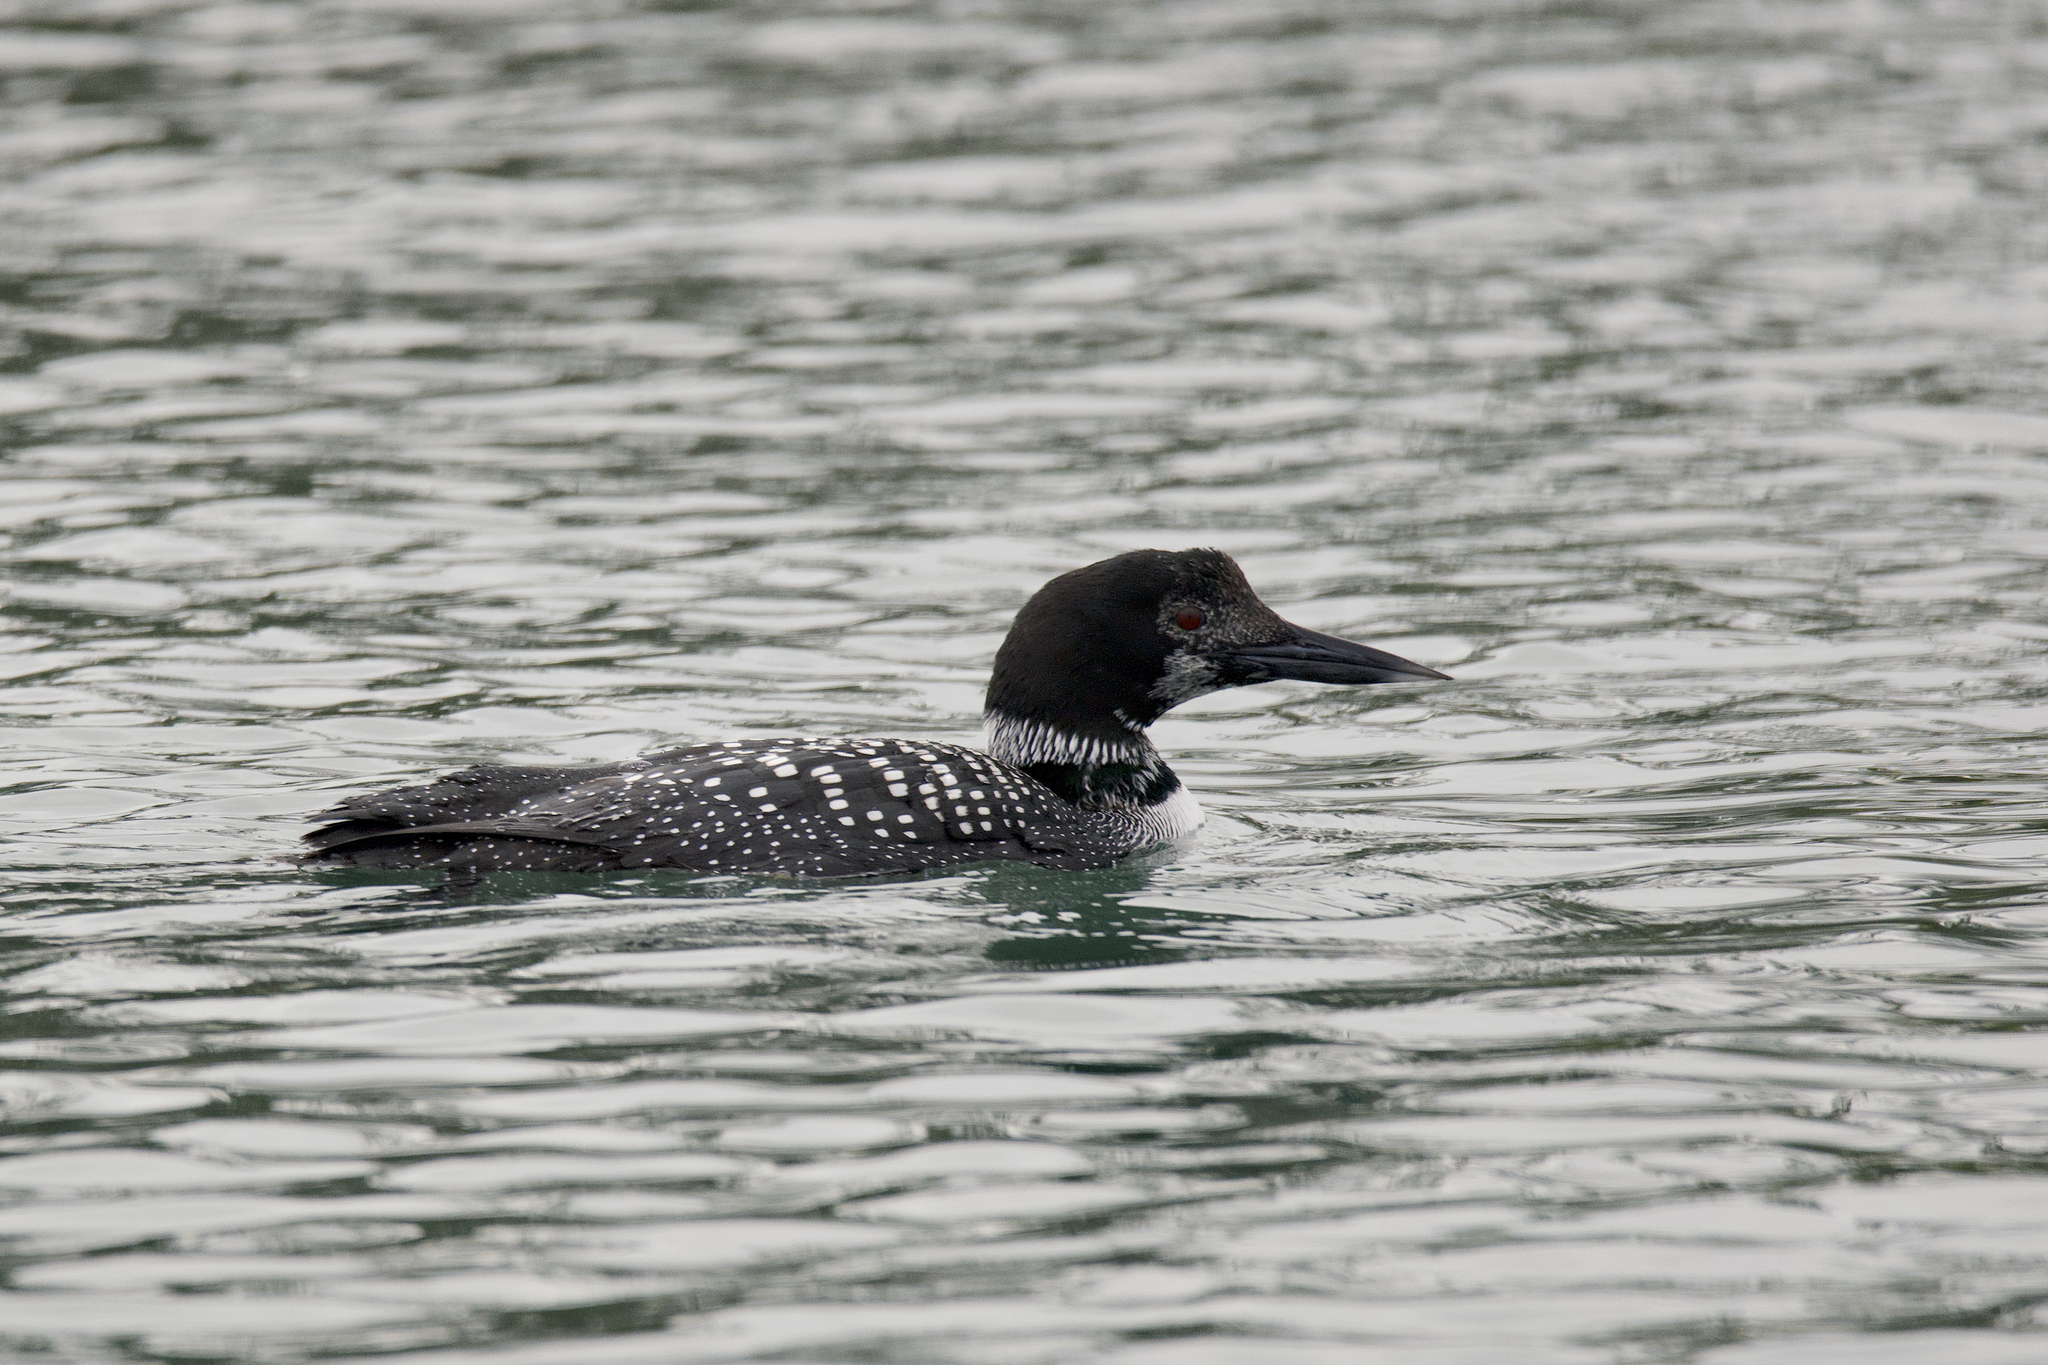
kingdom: Animalia
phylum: Chordata
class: Aves
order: Gaviiformes
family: Gaviidae
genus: Gavia
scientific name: Gavia immer
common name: Common loon
